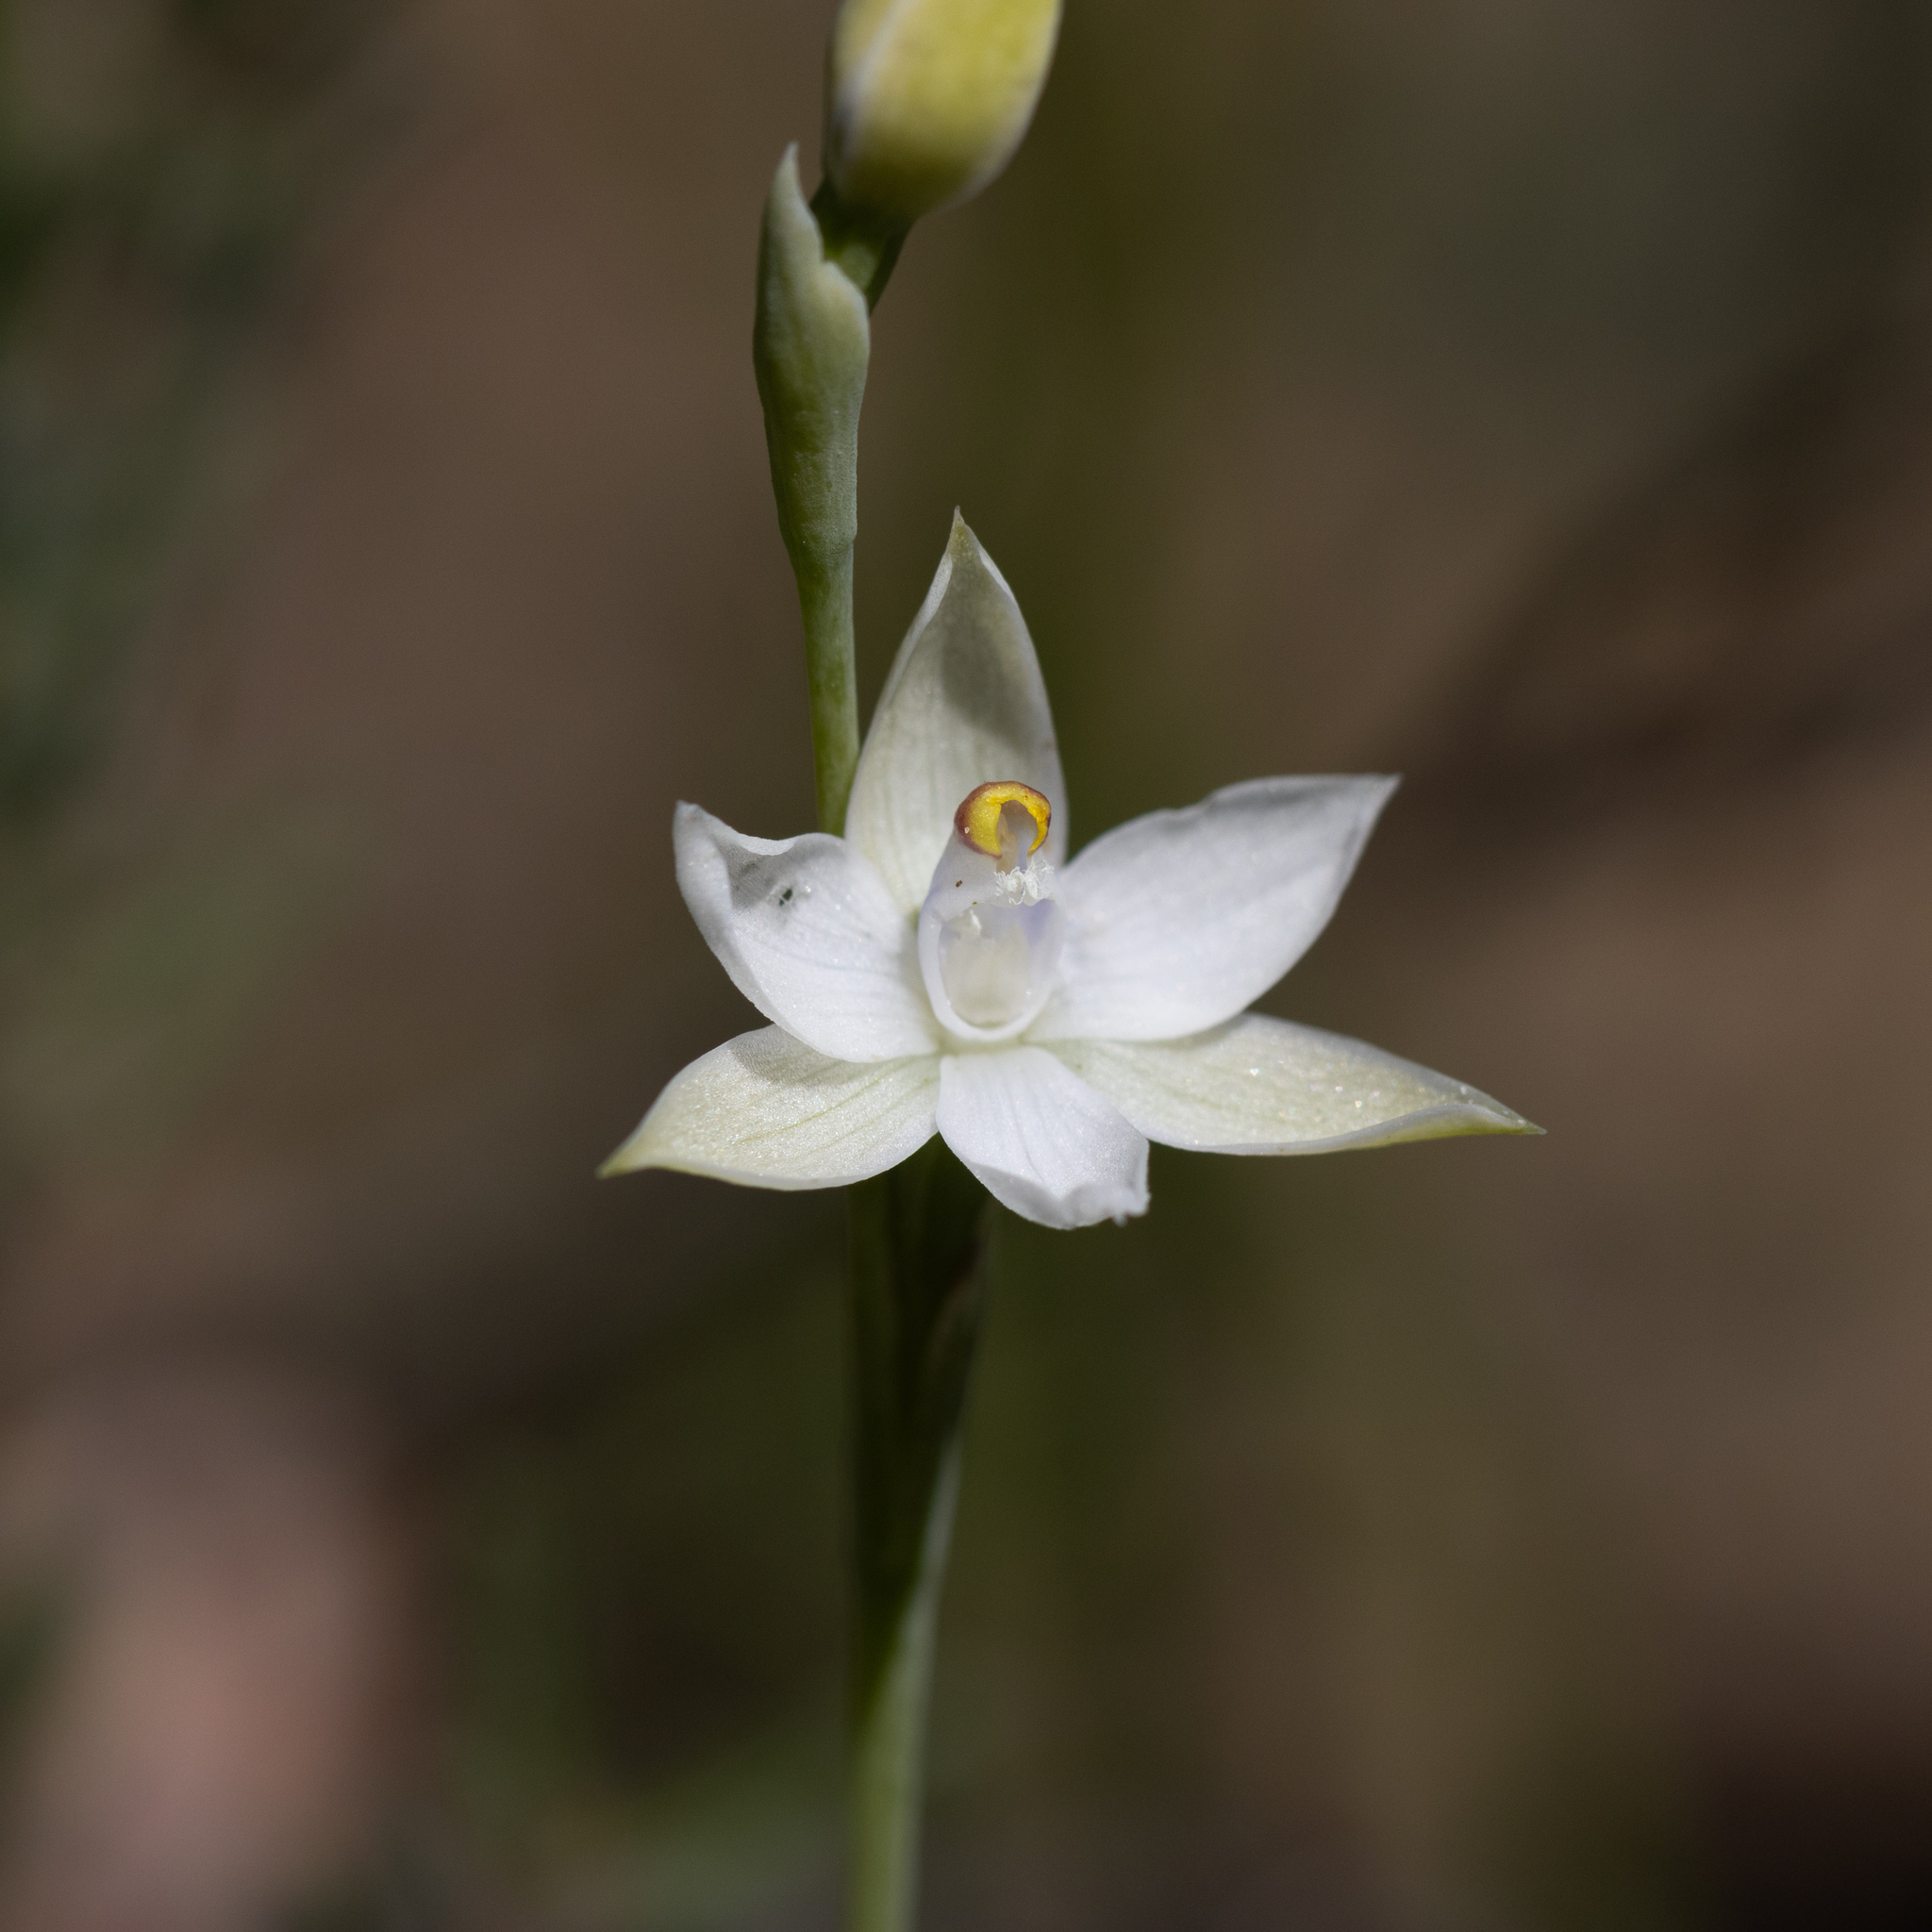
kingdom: Plantae
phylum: Tracheophyta
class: Liliopsida
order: Asparagales
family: Orchidaceae
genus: Thelymitra
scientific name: Thelymitra albiflora
